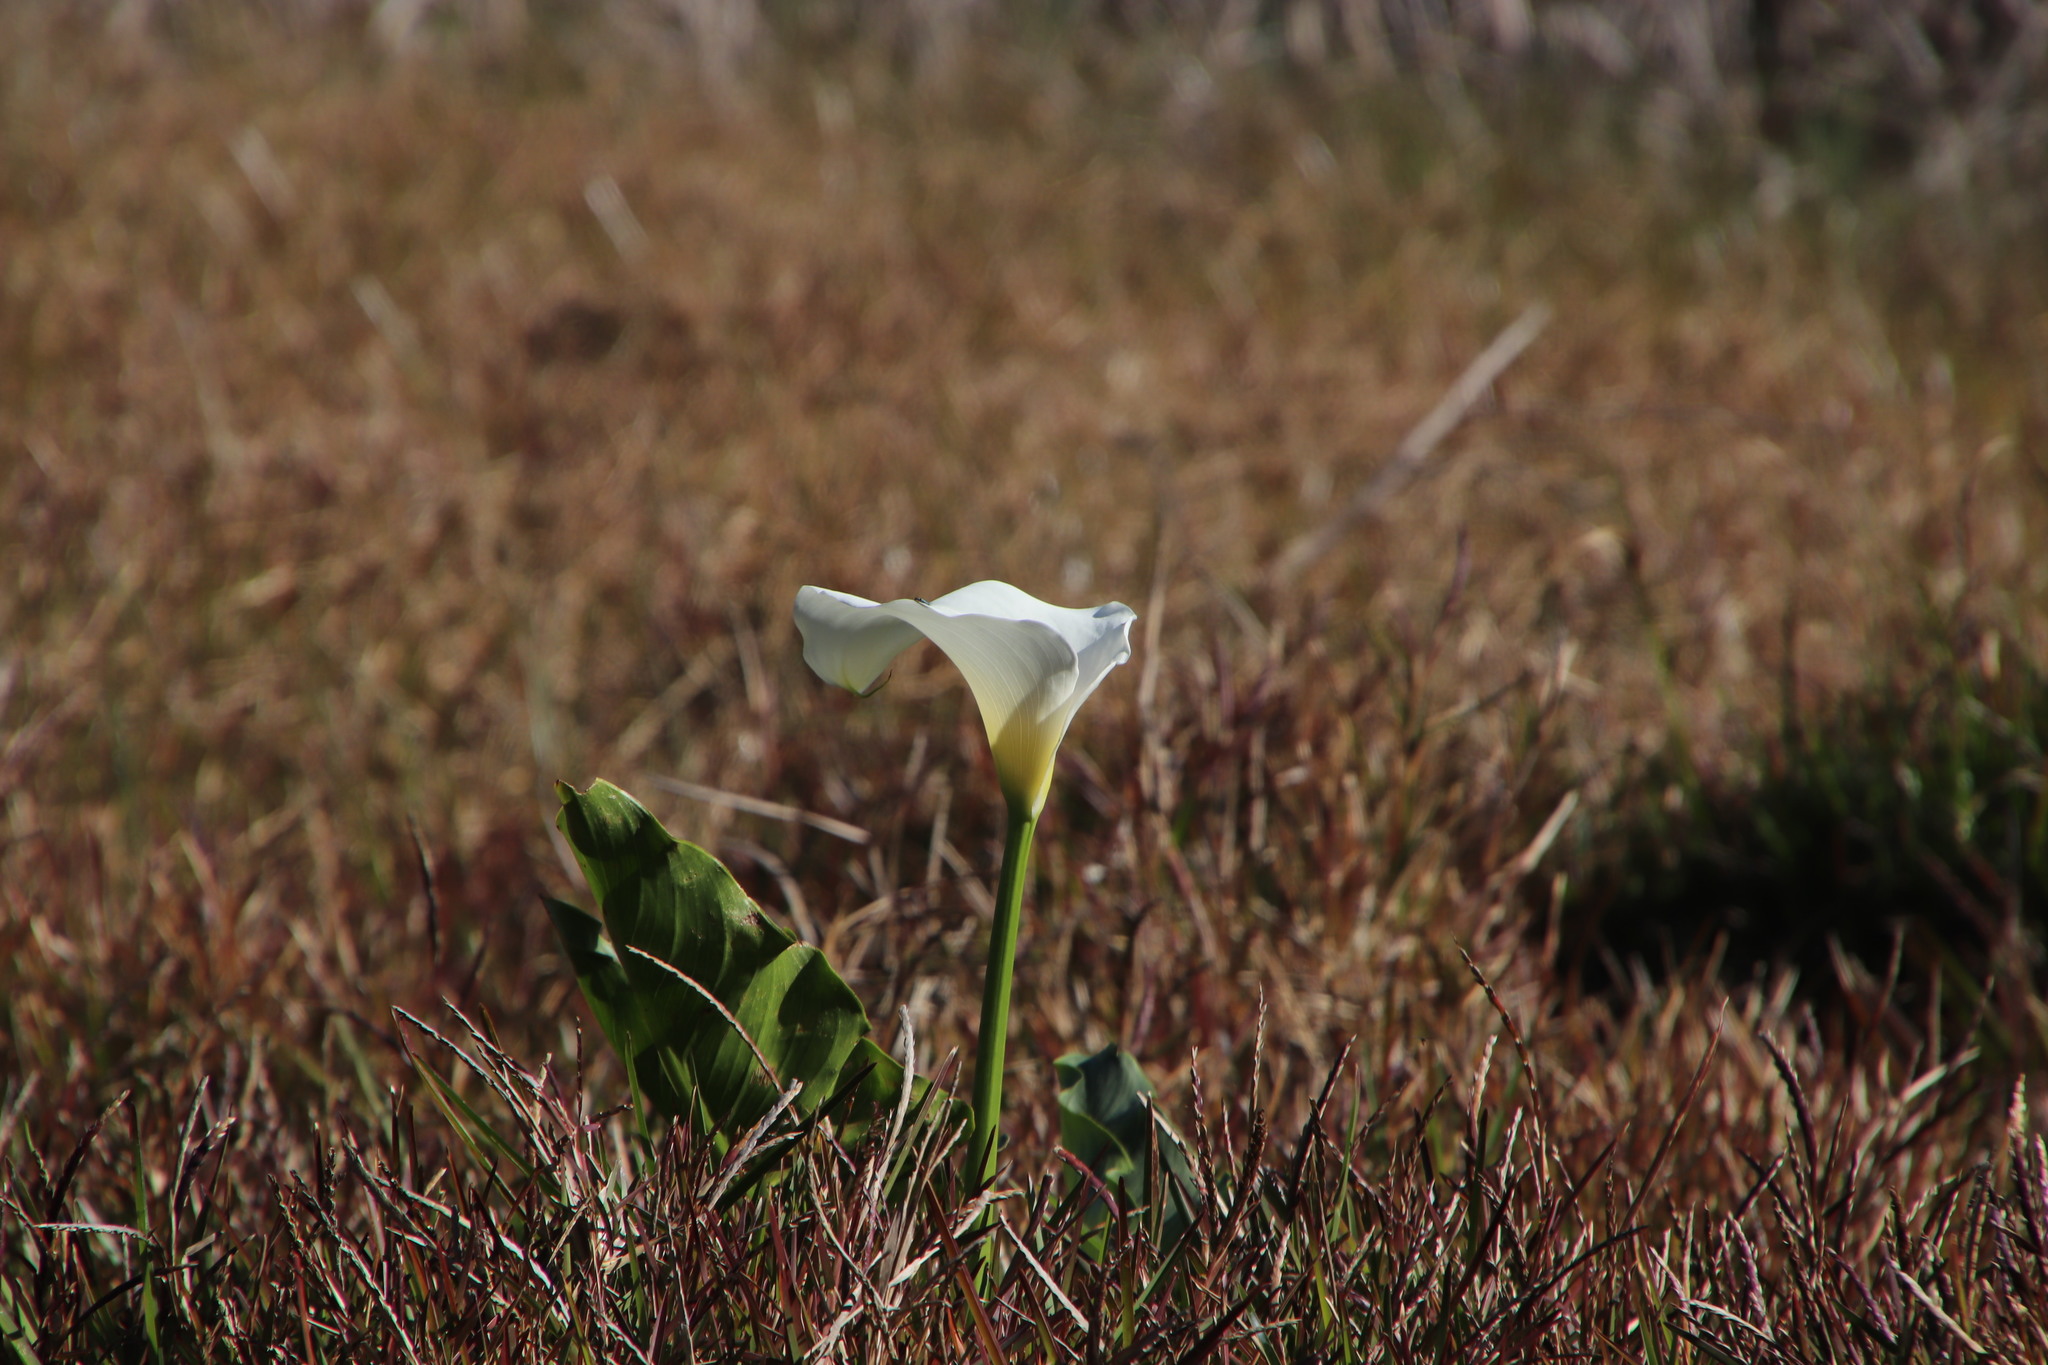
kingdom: Plantae
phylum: Tracheophyta
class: Liliopsida
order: Alismatales
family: Araceae
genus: Zantedeschia
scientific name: Zantedeschia aethiopica
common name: Altar-lily
